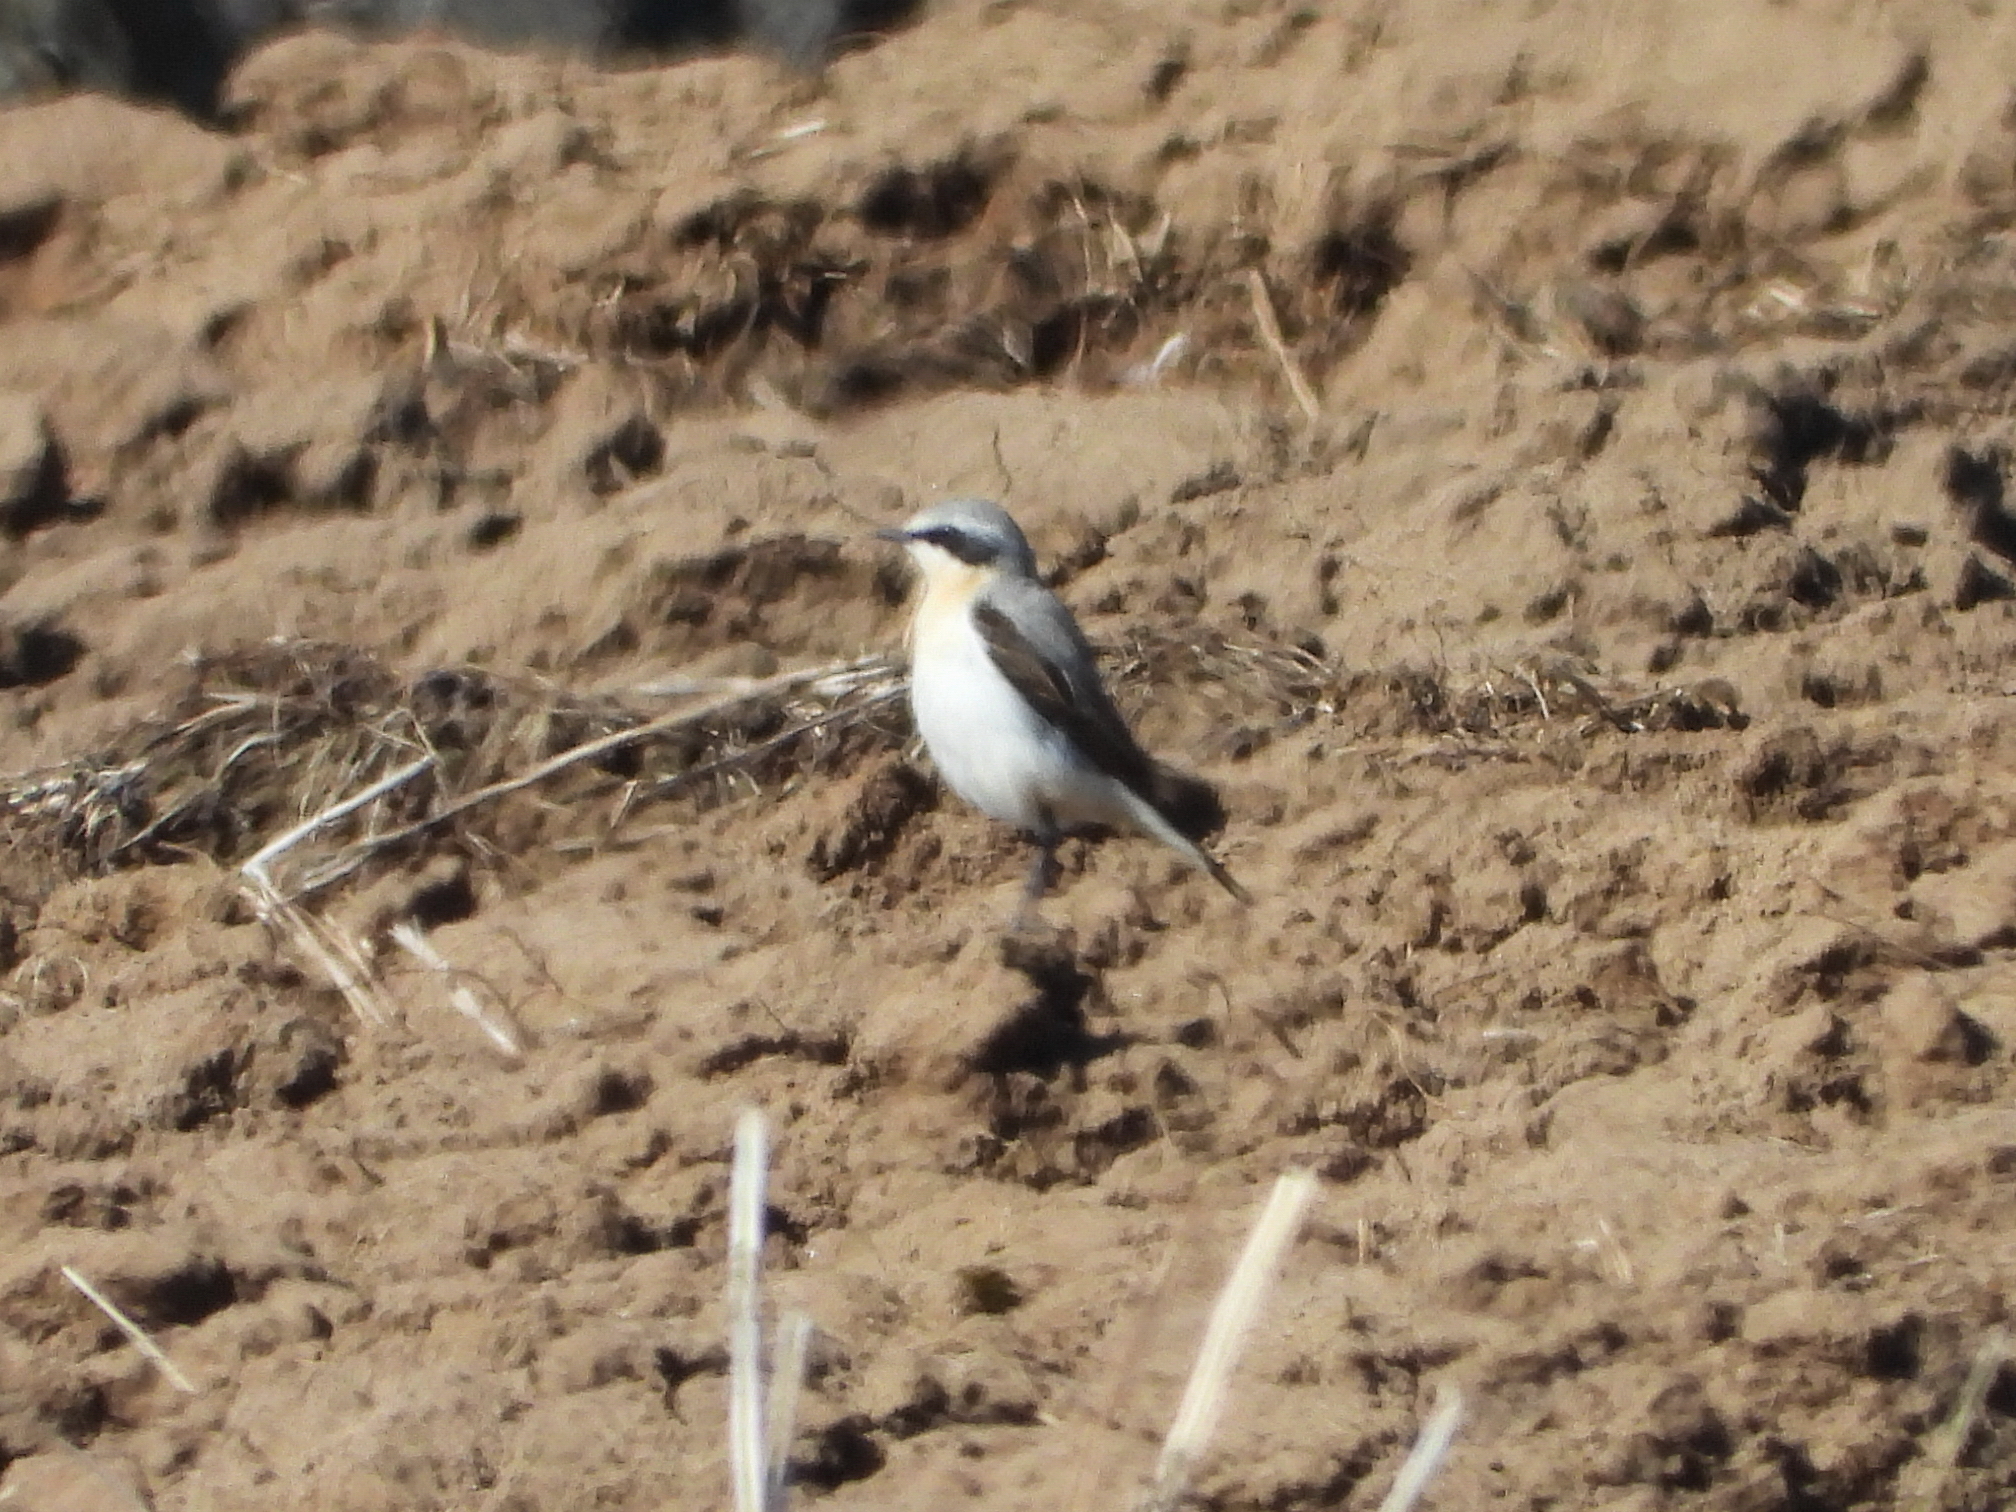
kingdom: Animalia
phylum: Chordata
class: Aves
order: Passeriformes
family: Muscicapidae
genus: Oenanthe
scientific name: Oenanthe oenanthe
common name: Northern wheatear
